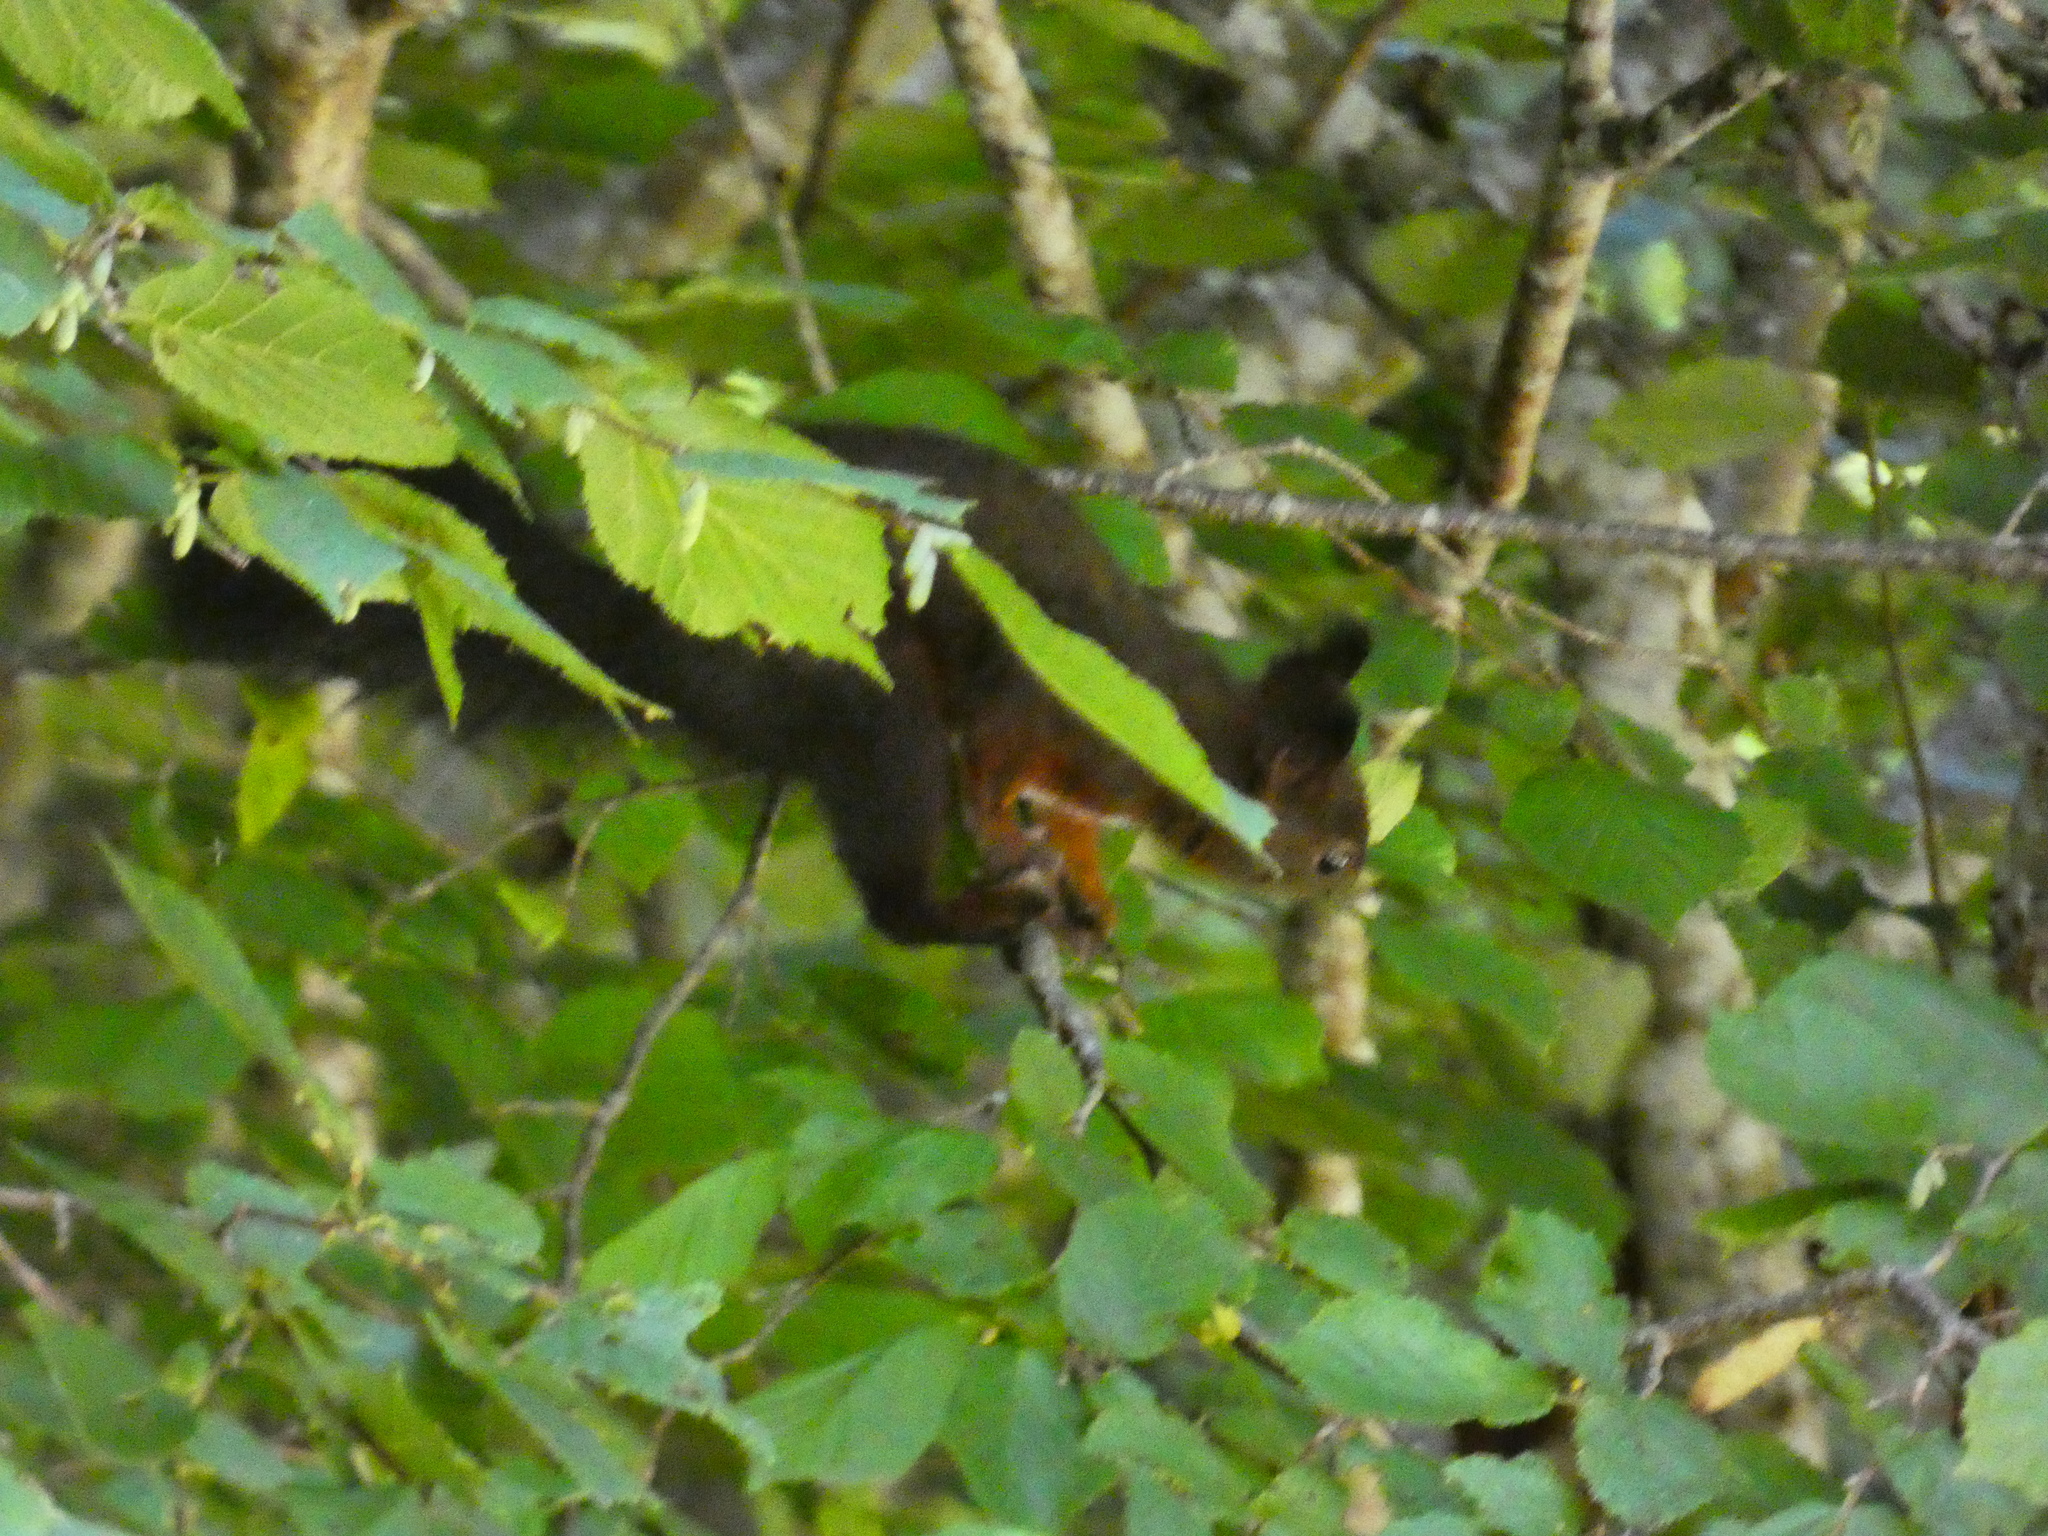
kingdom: Animalia
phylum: Chordata
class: Mammalia
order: Rodentia
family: Sciuridae
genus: Sciurus
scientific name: Sciurus vulgaris
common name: Eurasian red squirrel
